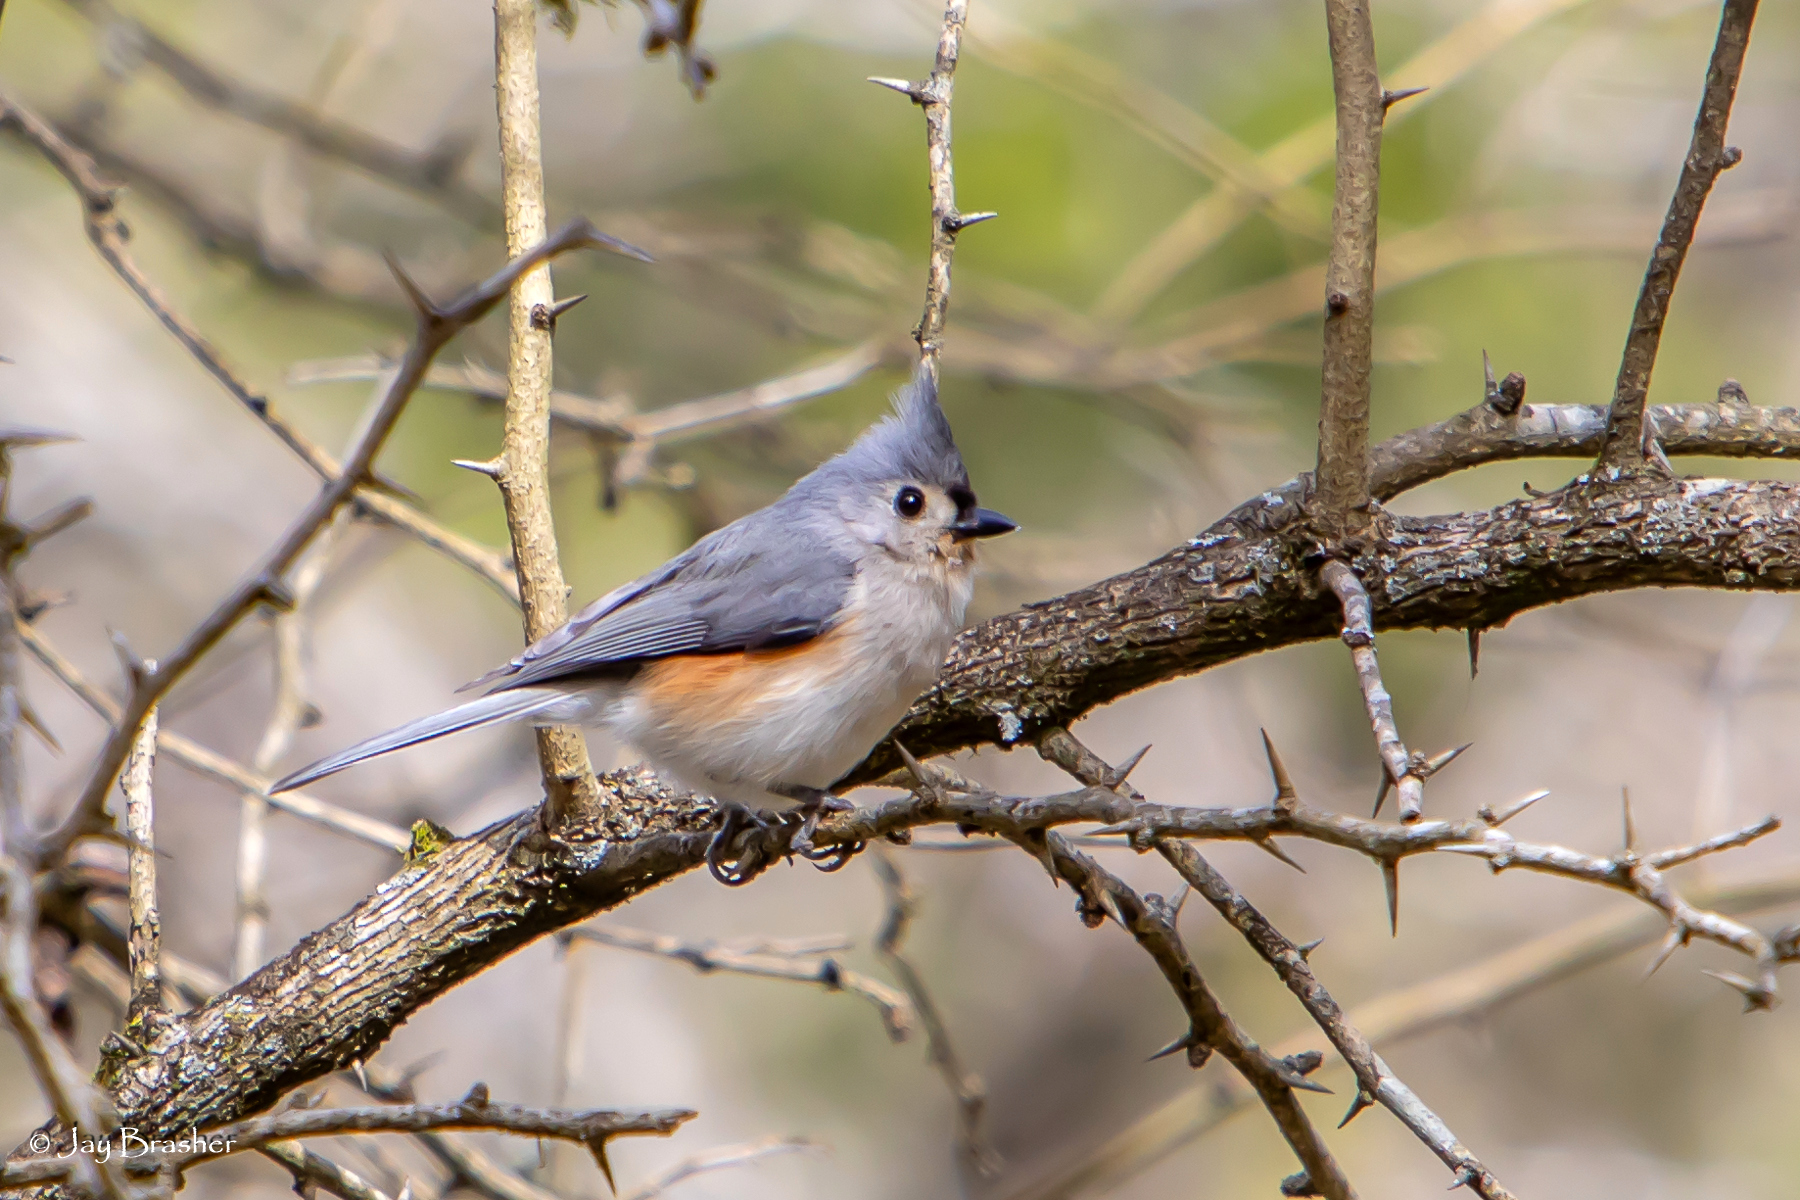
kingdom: Animalia
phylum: Chordata
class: Aves
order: Passeriformes
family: Paridae
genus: Baeolophus
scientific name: Baeolophus bicolor
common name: Tufted titmouse
